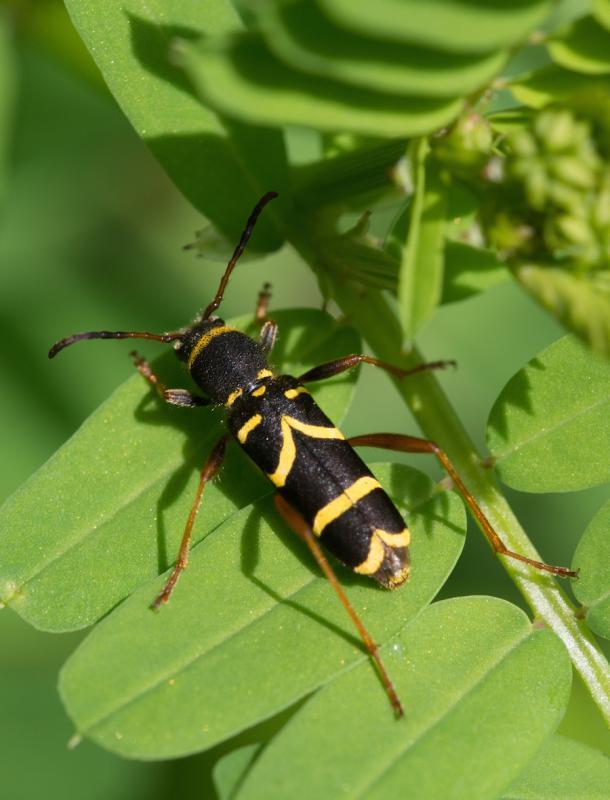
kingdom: Animalia
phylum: Arthropoda
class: Insecta
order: Coleoptera
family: Cerambycidae
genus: Clytus
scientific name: Clytus arietis
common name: Wasp beetle
